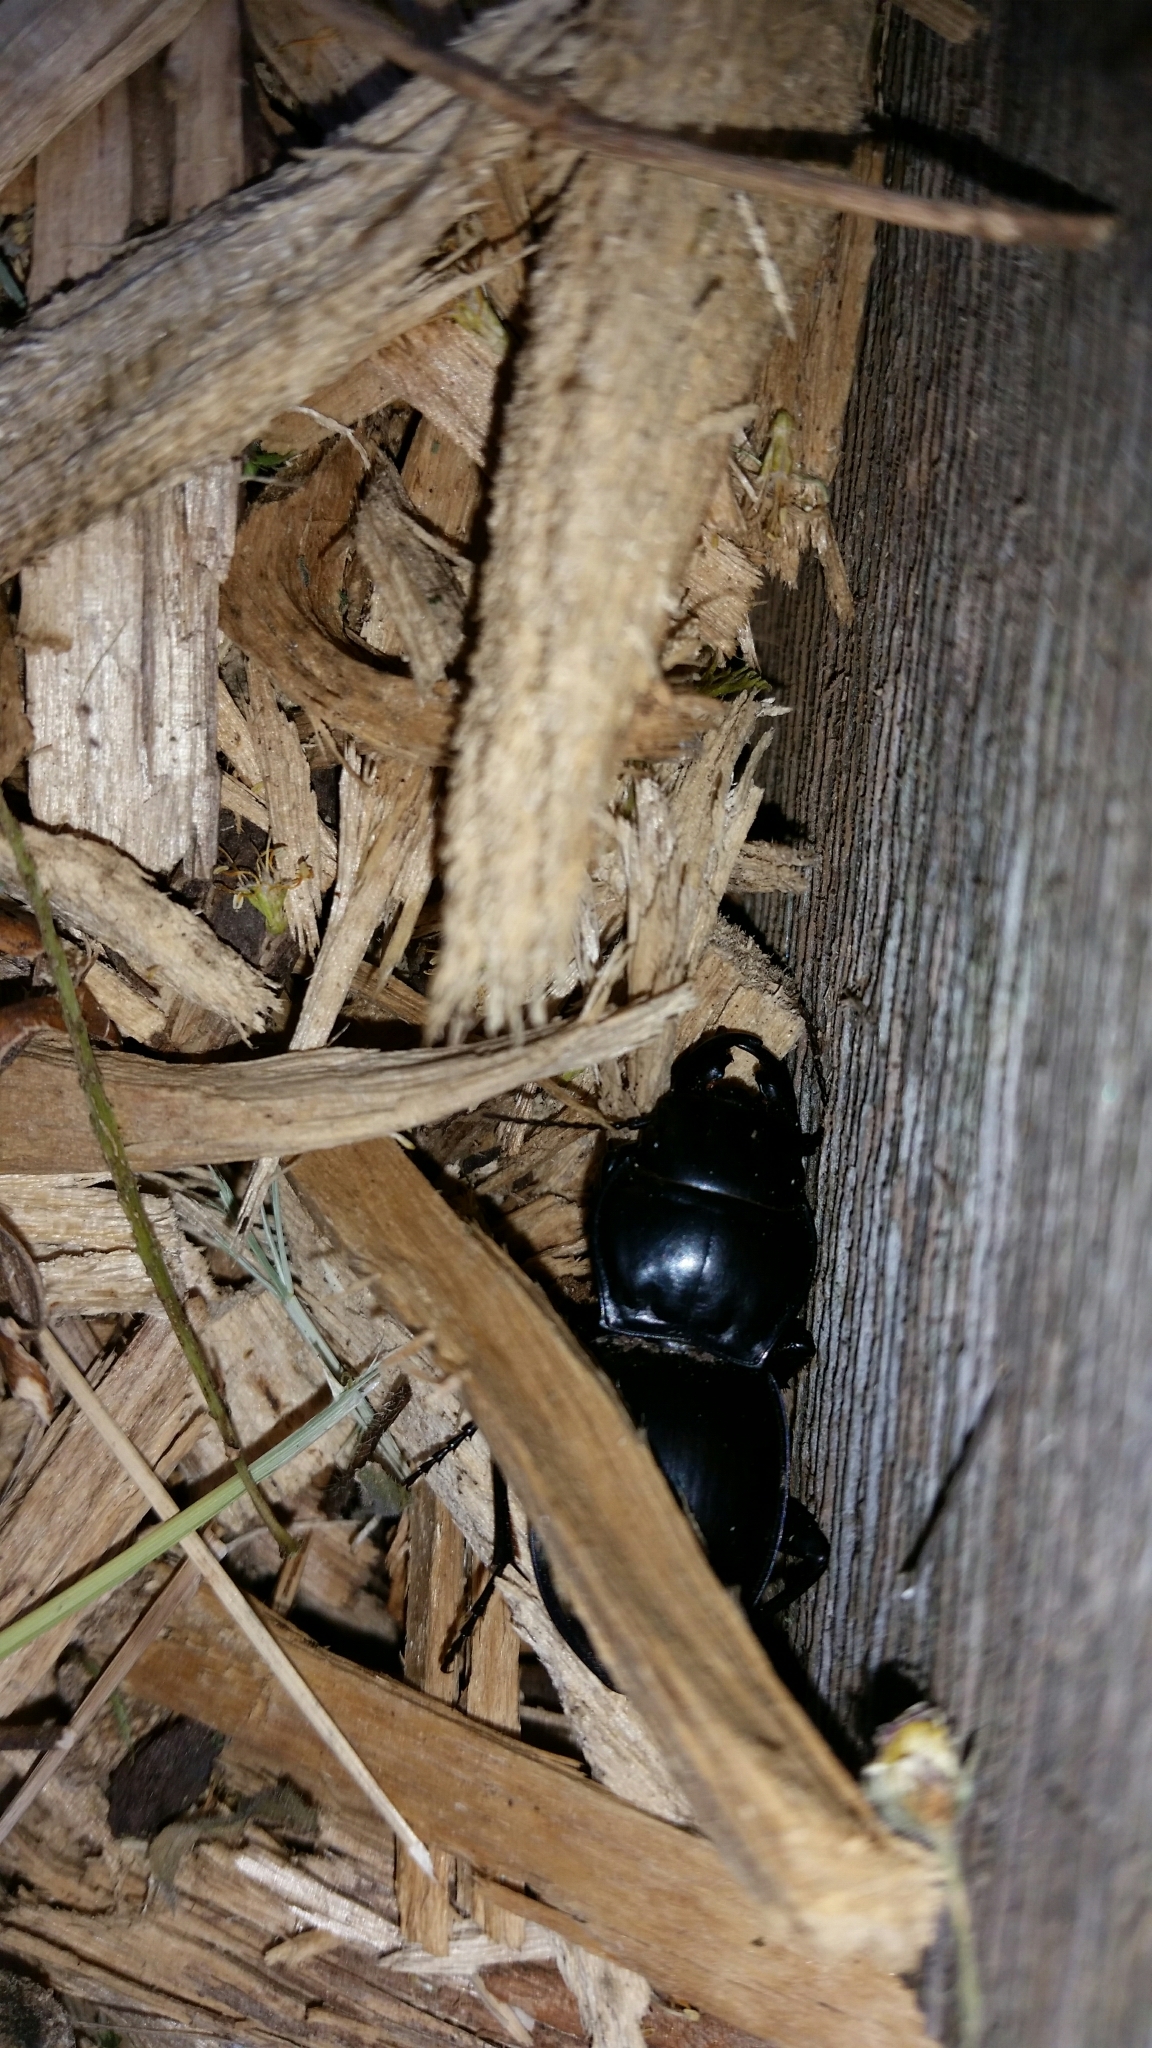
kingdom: Animalia
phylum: Arthropoda
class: Insecta
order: Coleoptera
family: Carabidae
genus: Pasimachus
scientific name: Pasimachus californicus
